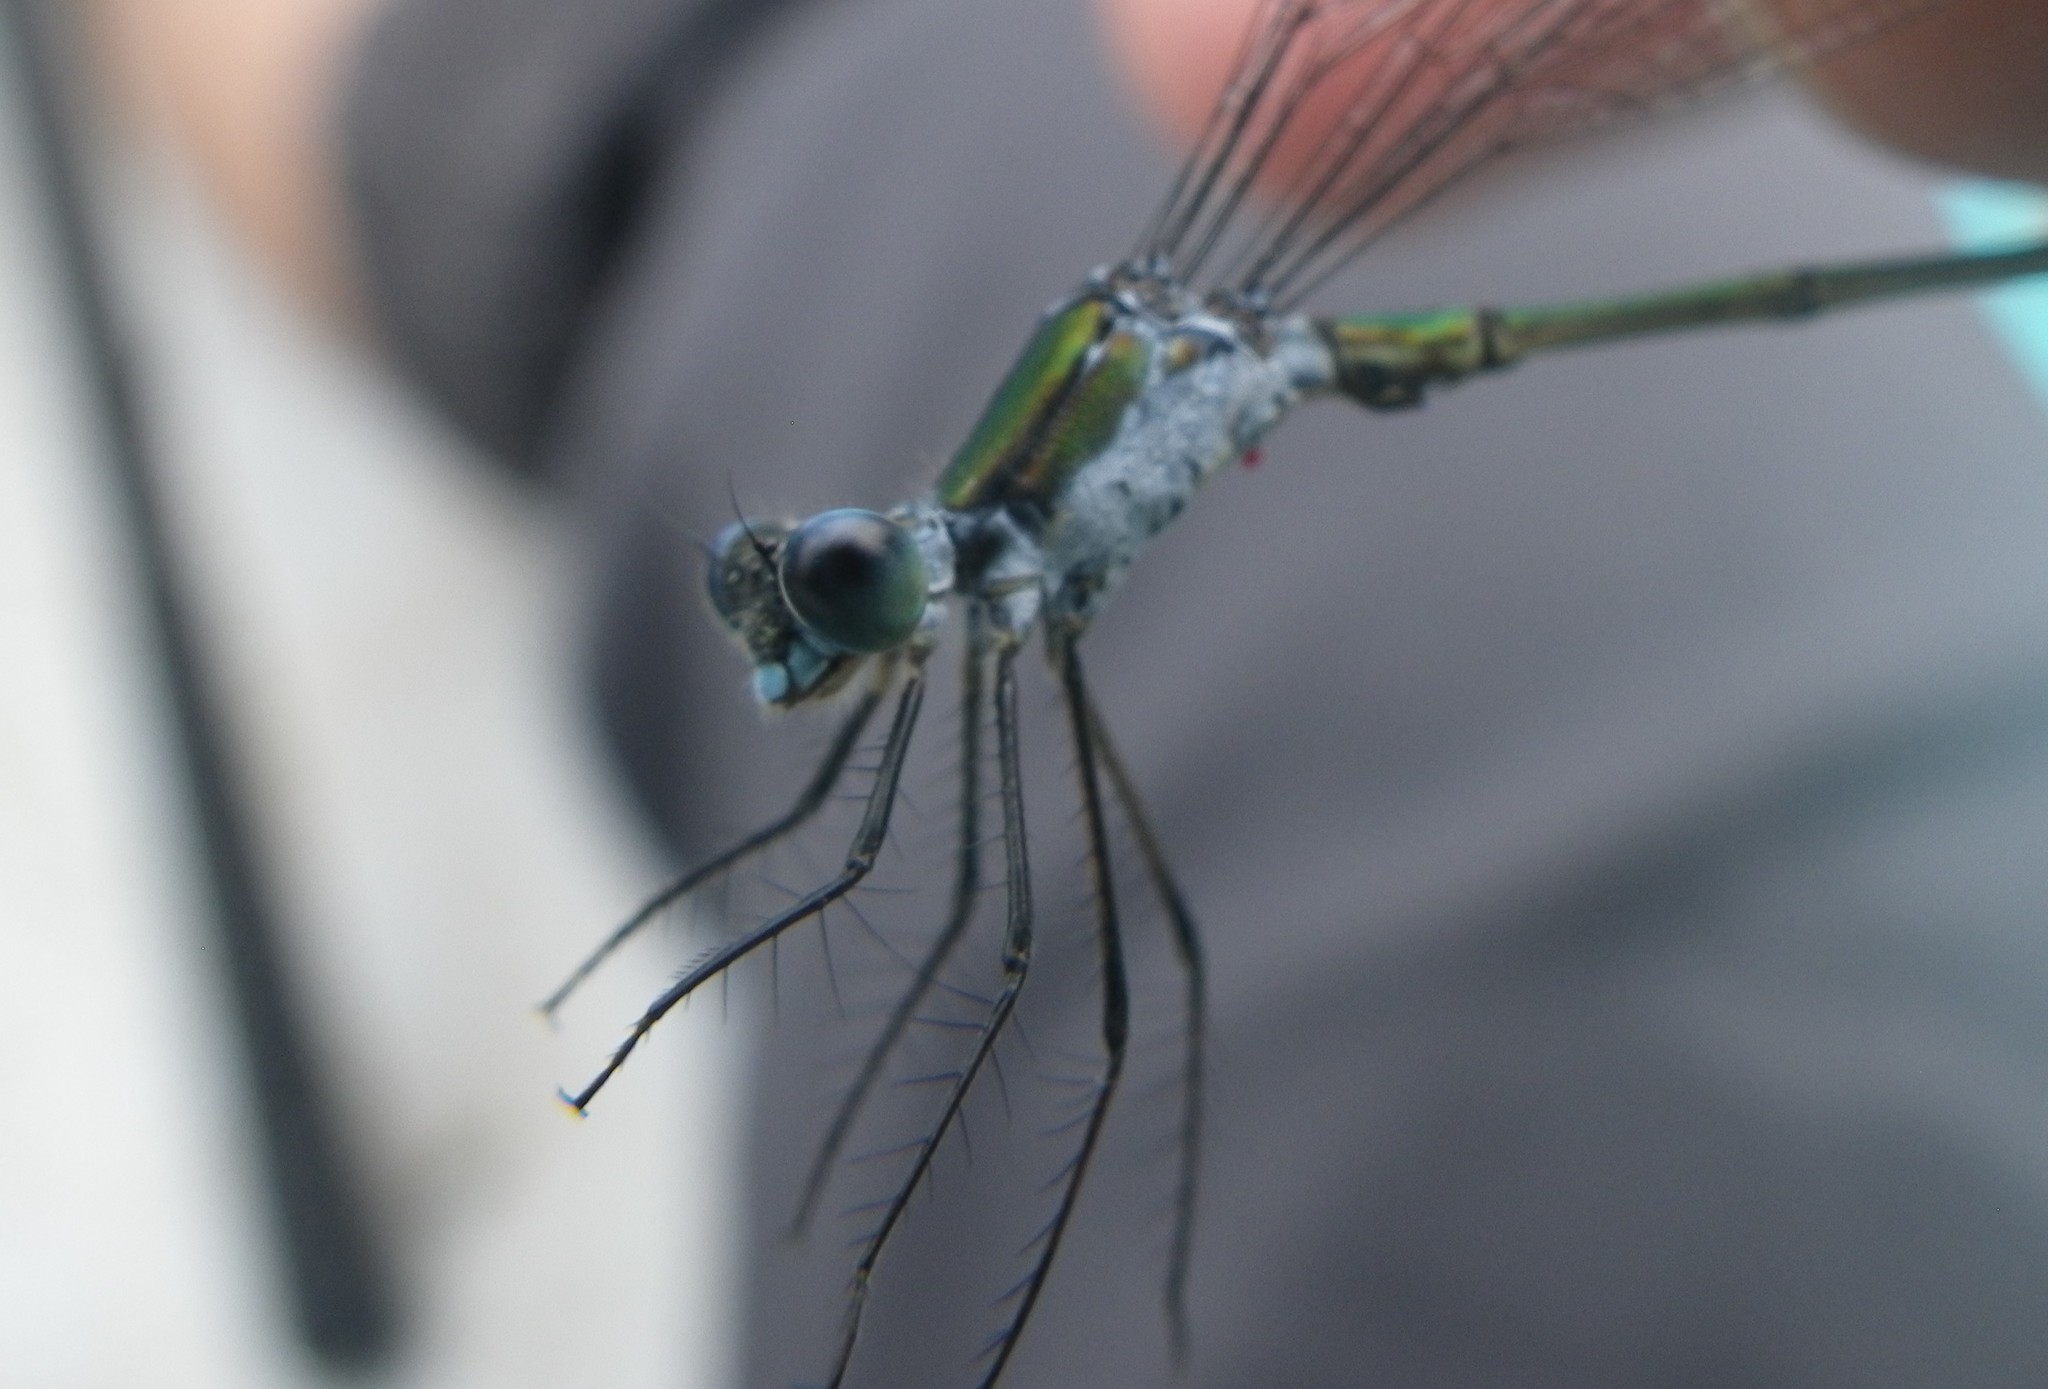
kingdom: Animalia
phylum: Arthropoda
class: Insecta
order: Odonata
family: Lestidae
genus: Lestes
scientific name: Lestes vigilax
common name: Swamp spreadwing
